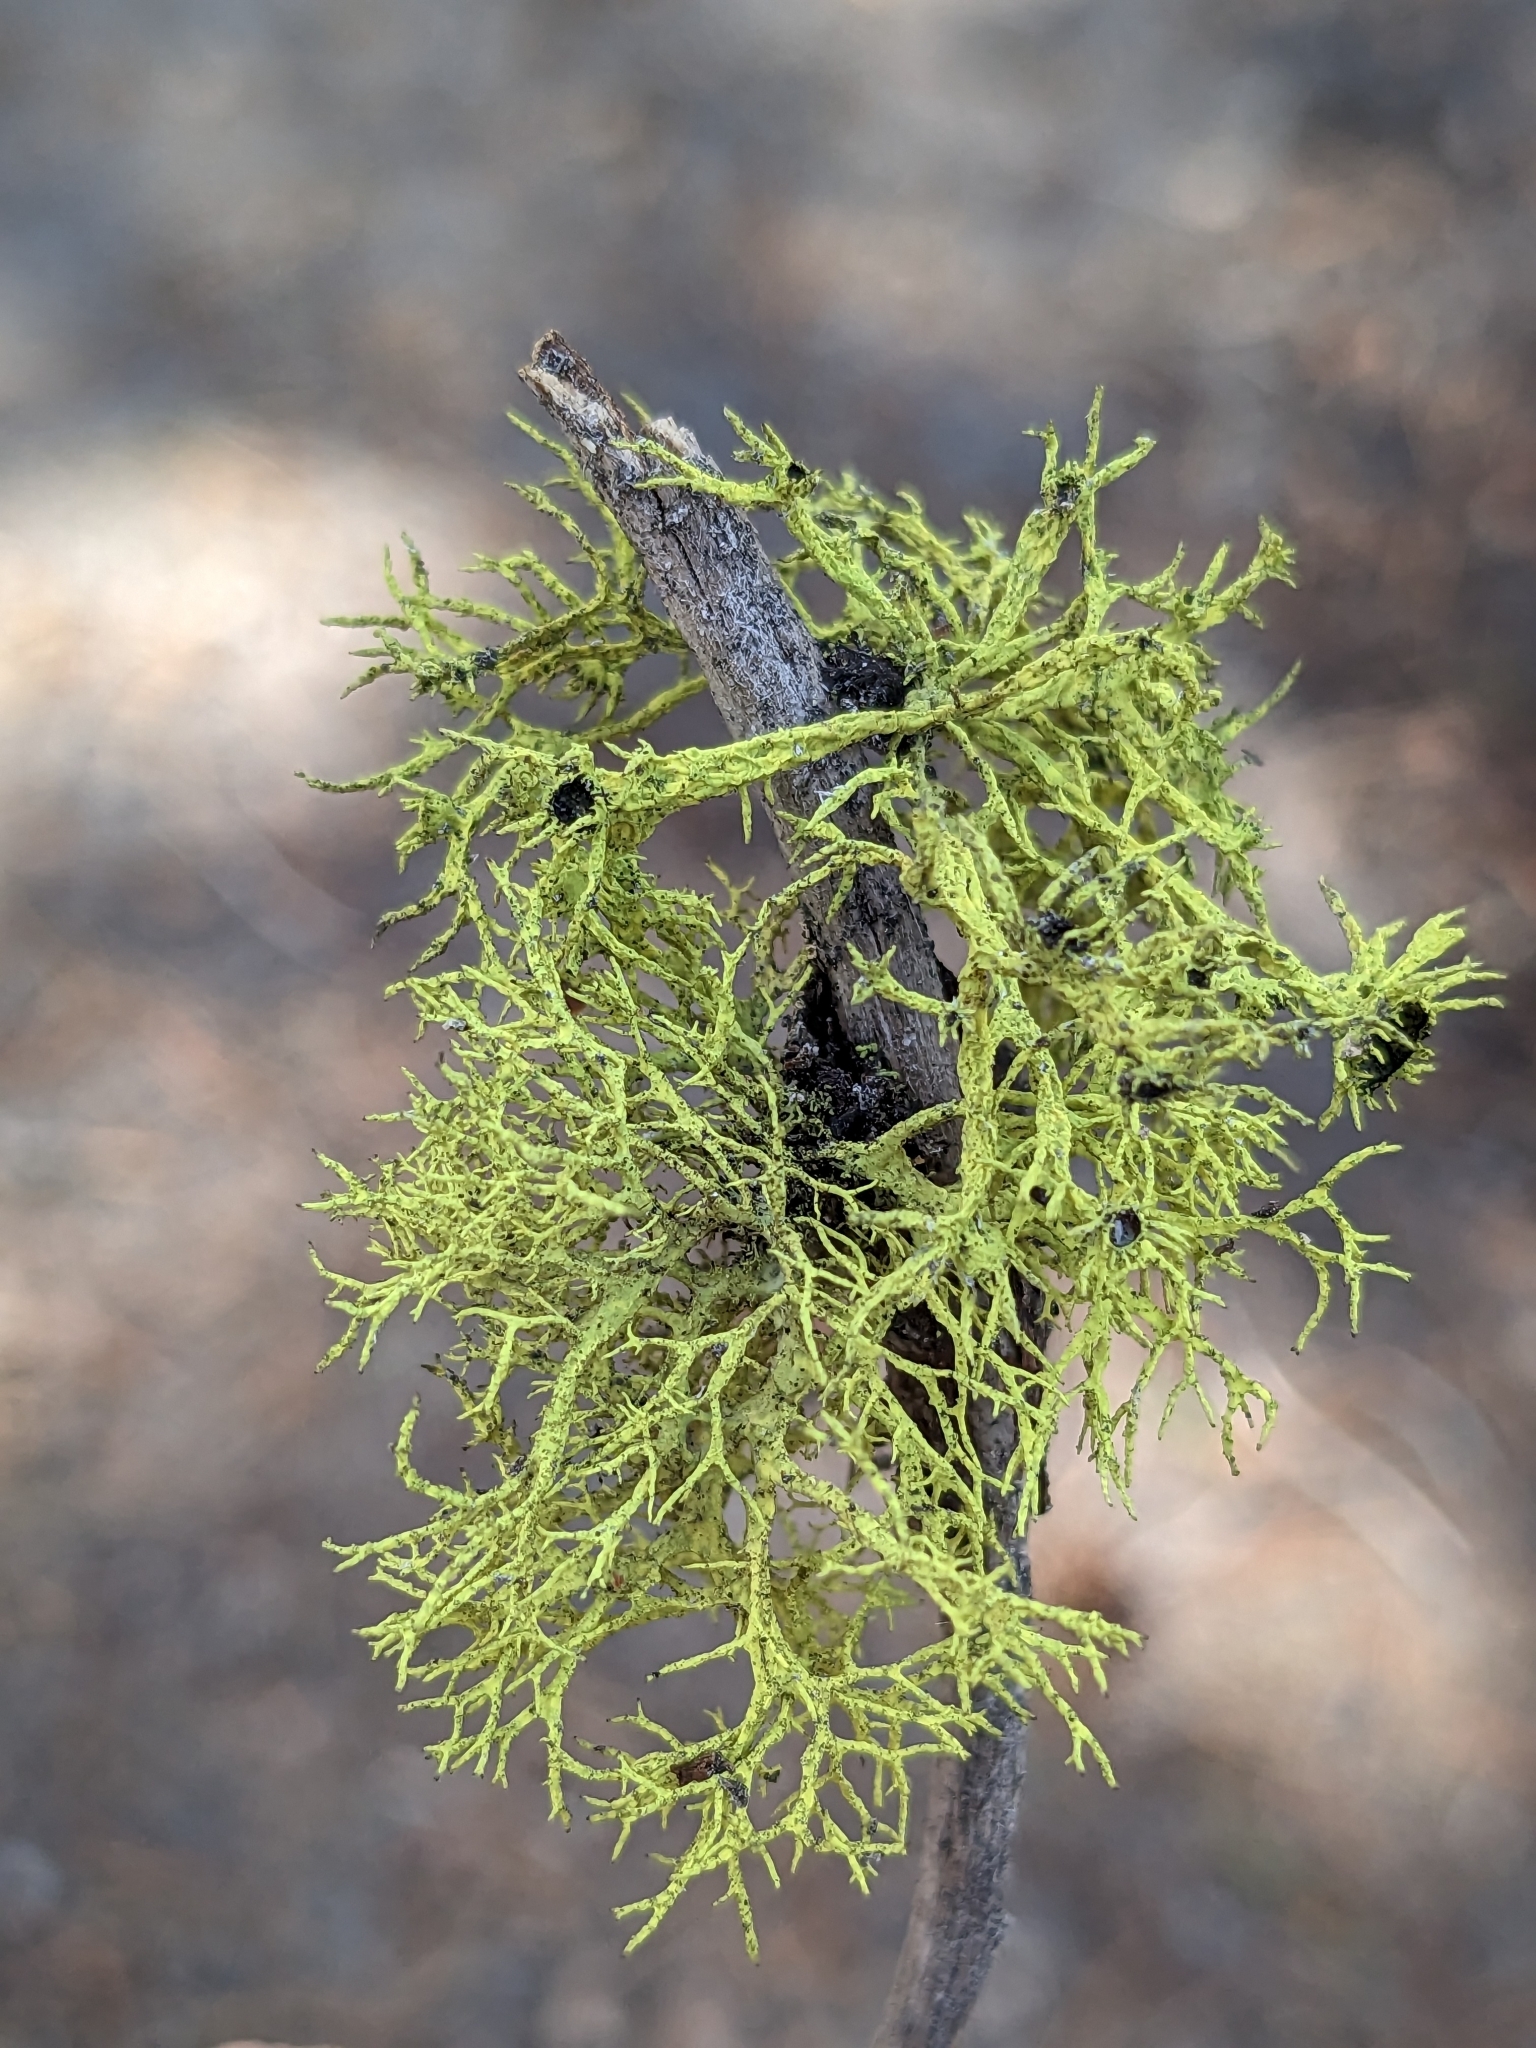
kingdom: Fungi
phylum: Ascomycota
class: Lecanoromycetes
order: Lecanorales
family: Parmeliaceae
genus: Letharia
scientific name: Letharia columbiana
